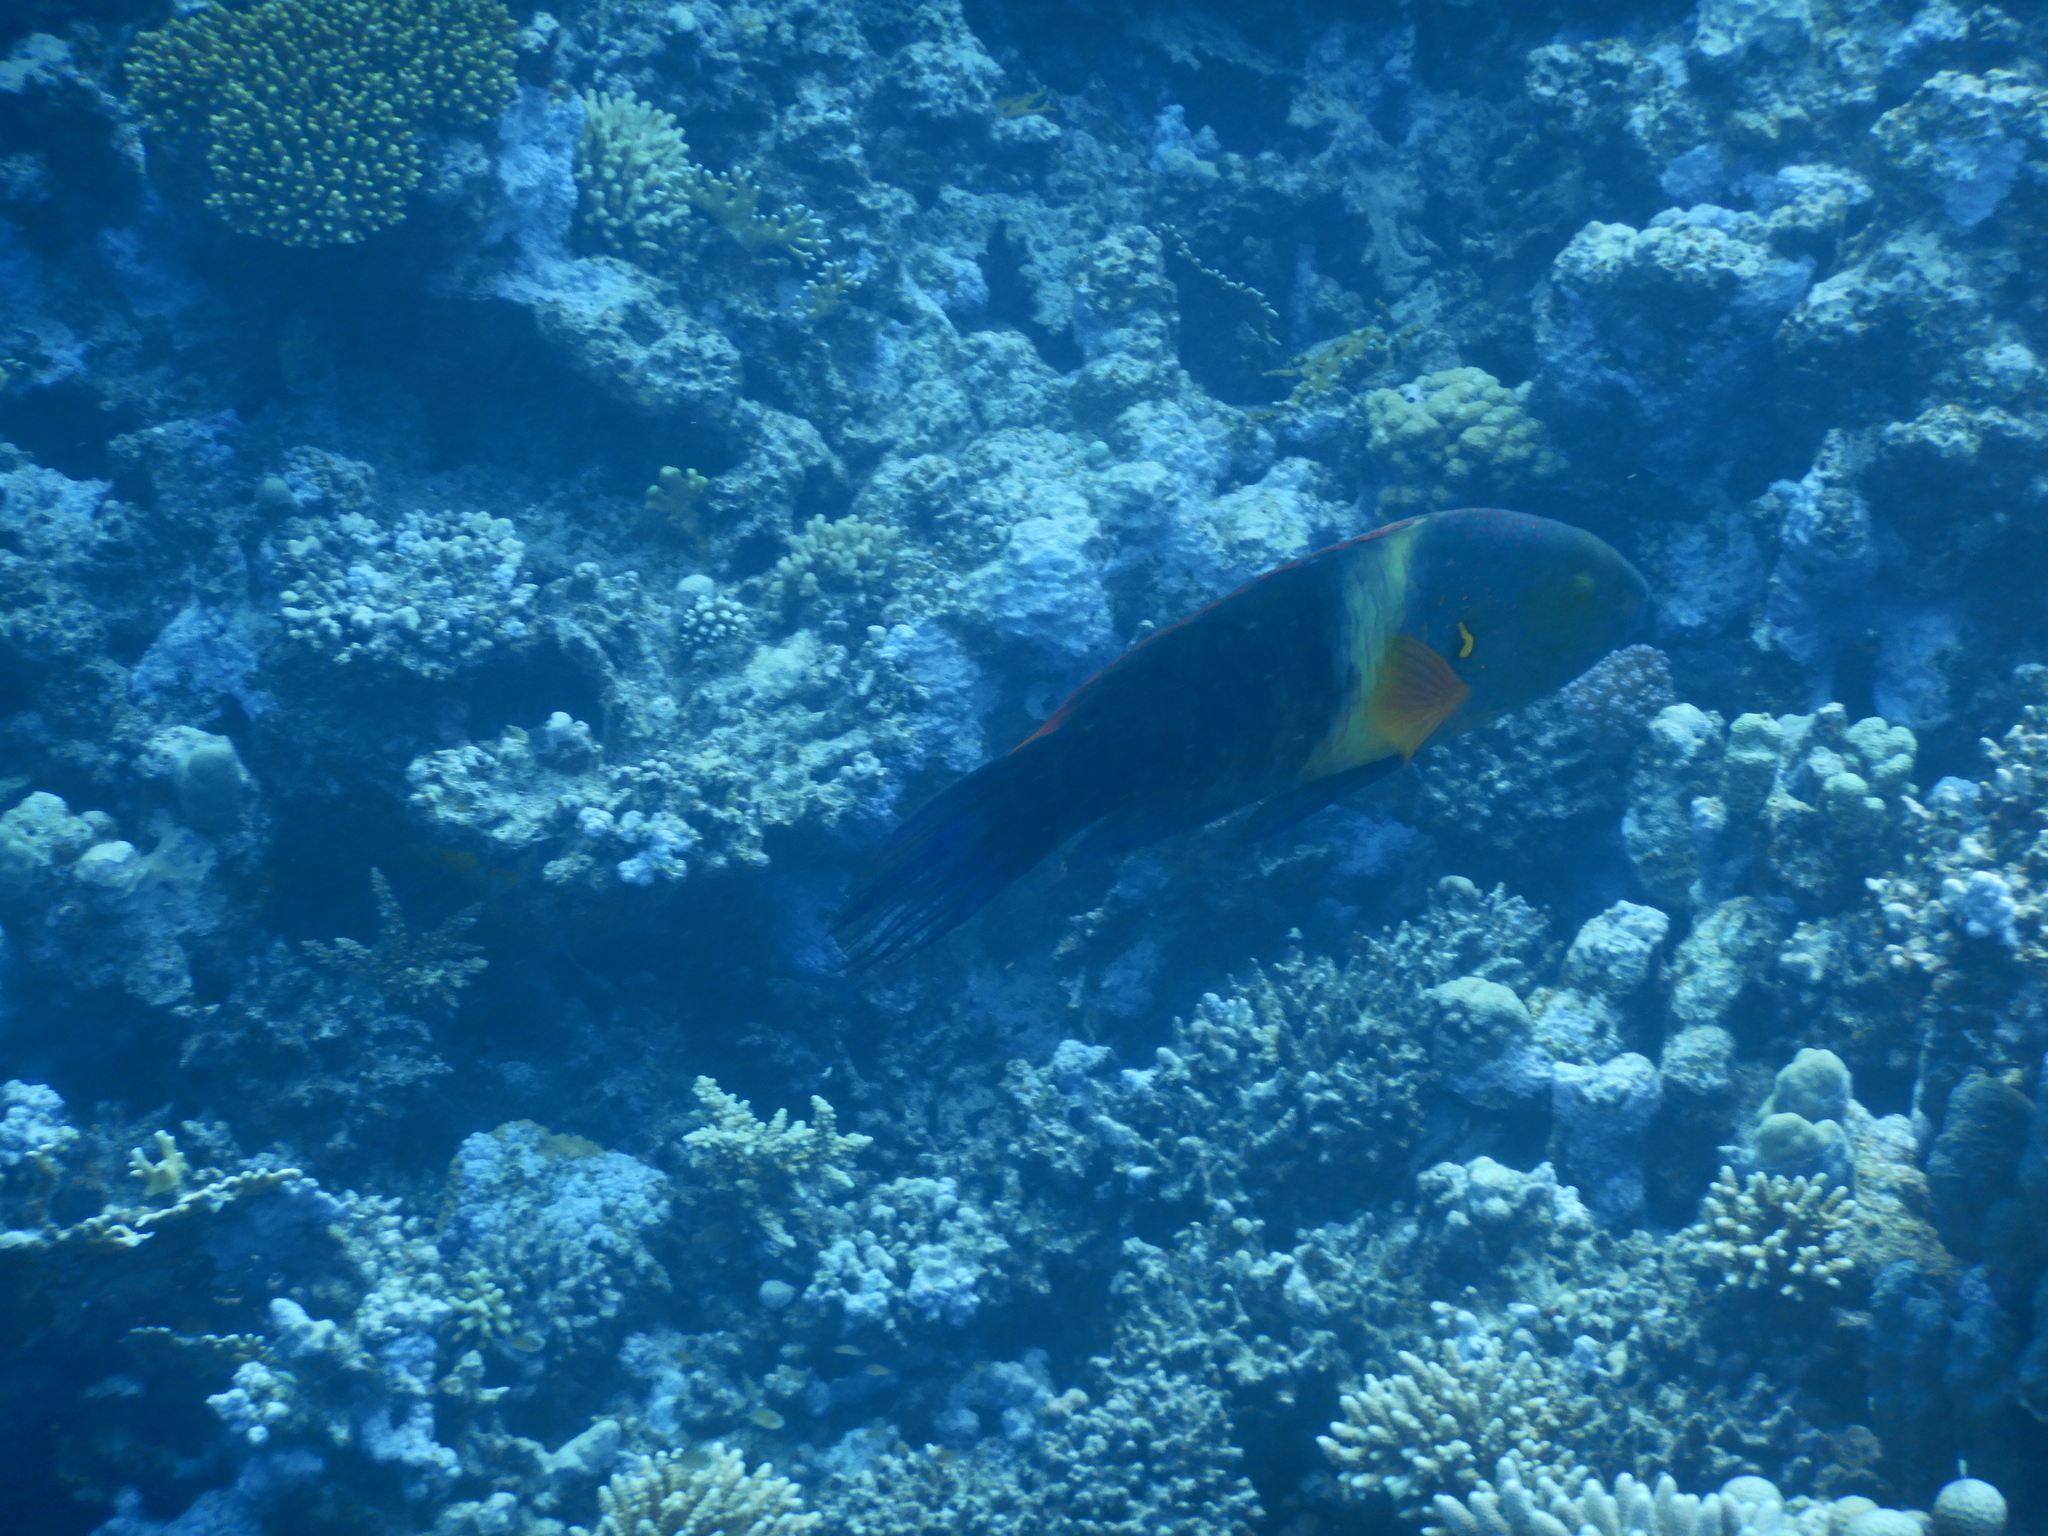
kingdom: Animalia
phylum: Chordata
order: Perciformes
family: Labridae
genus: Cheilinus
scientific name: Cheilinus lunulatus
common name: Broomtail wrasse
